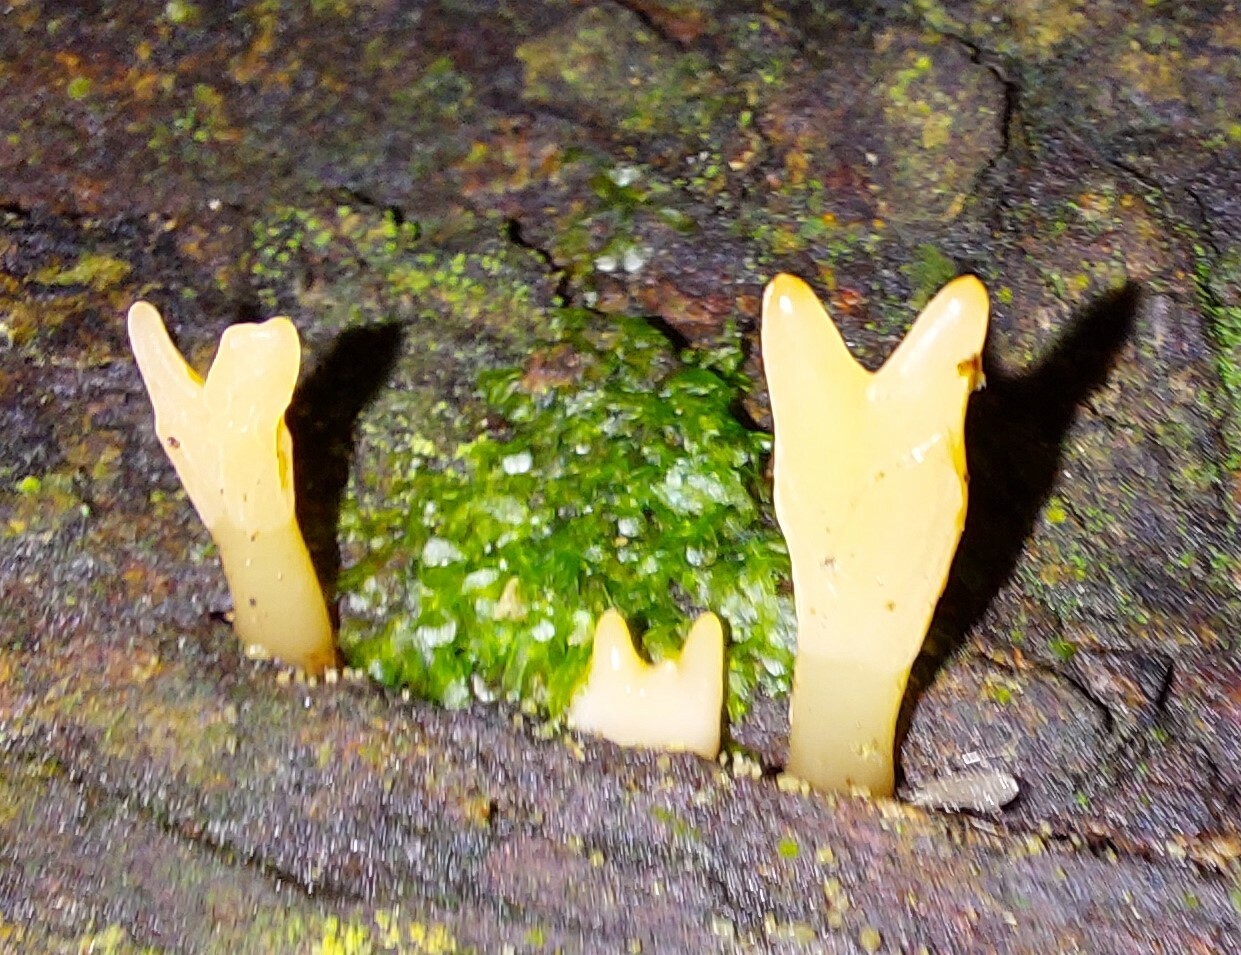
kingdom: Fungi
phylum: Basidiomycota
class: Dacrymycetes
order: Dacrymycetales
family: Dacrymycetaceae
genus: Calocera
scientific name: Calocera guepinioides
